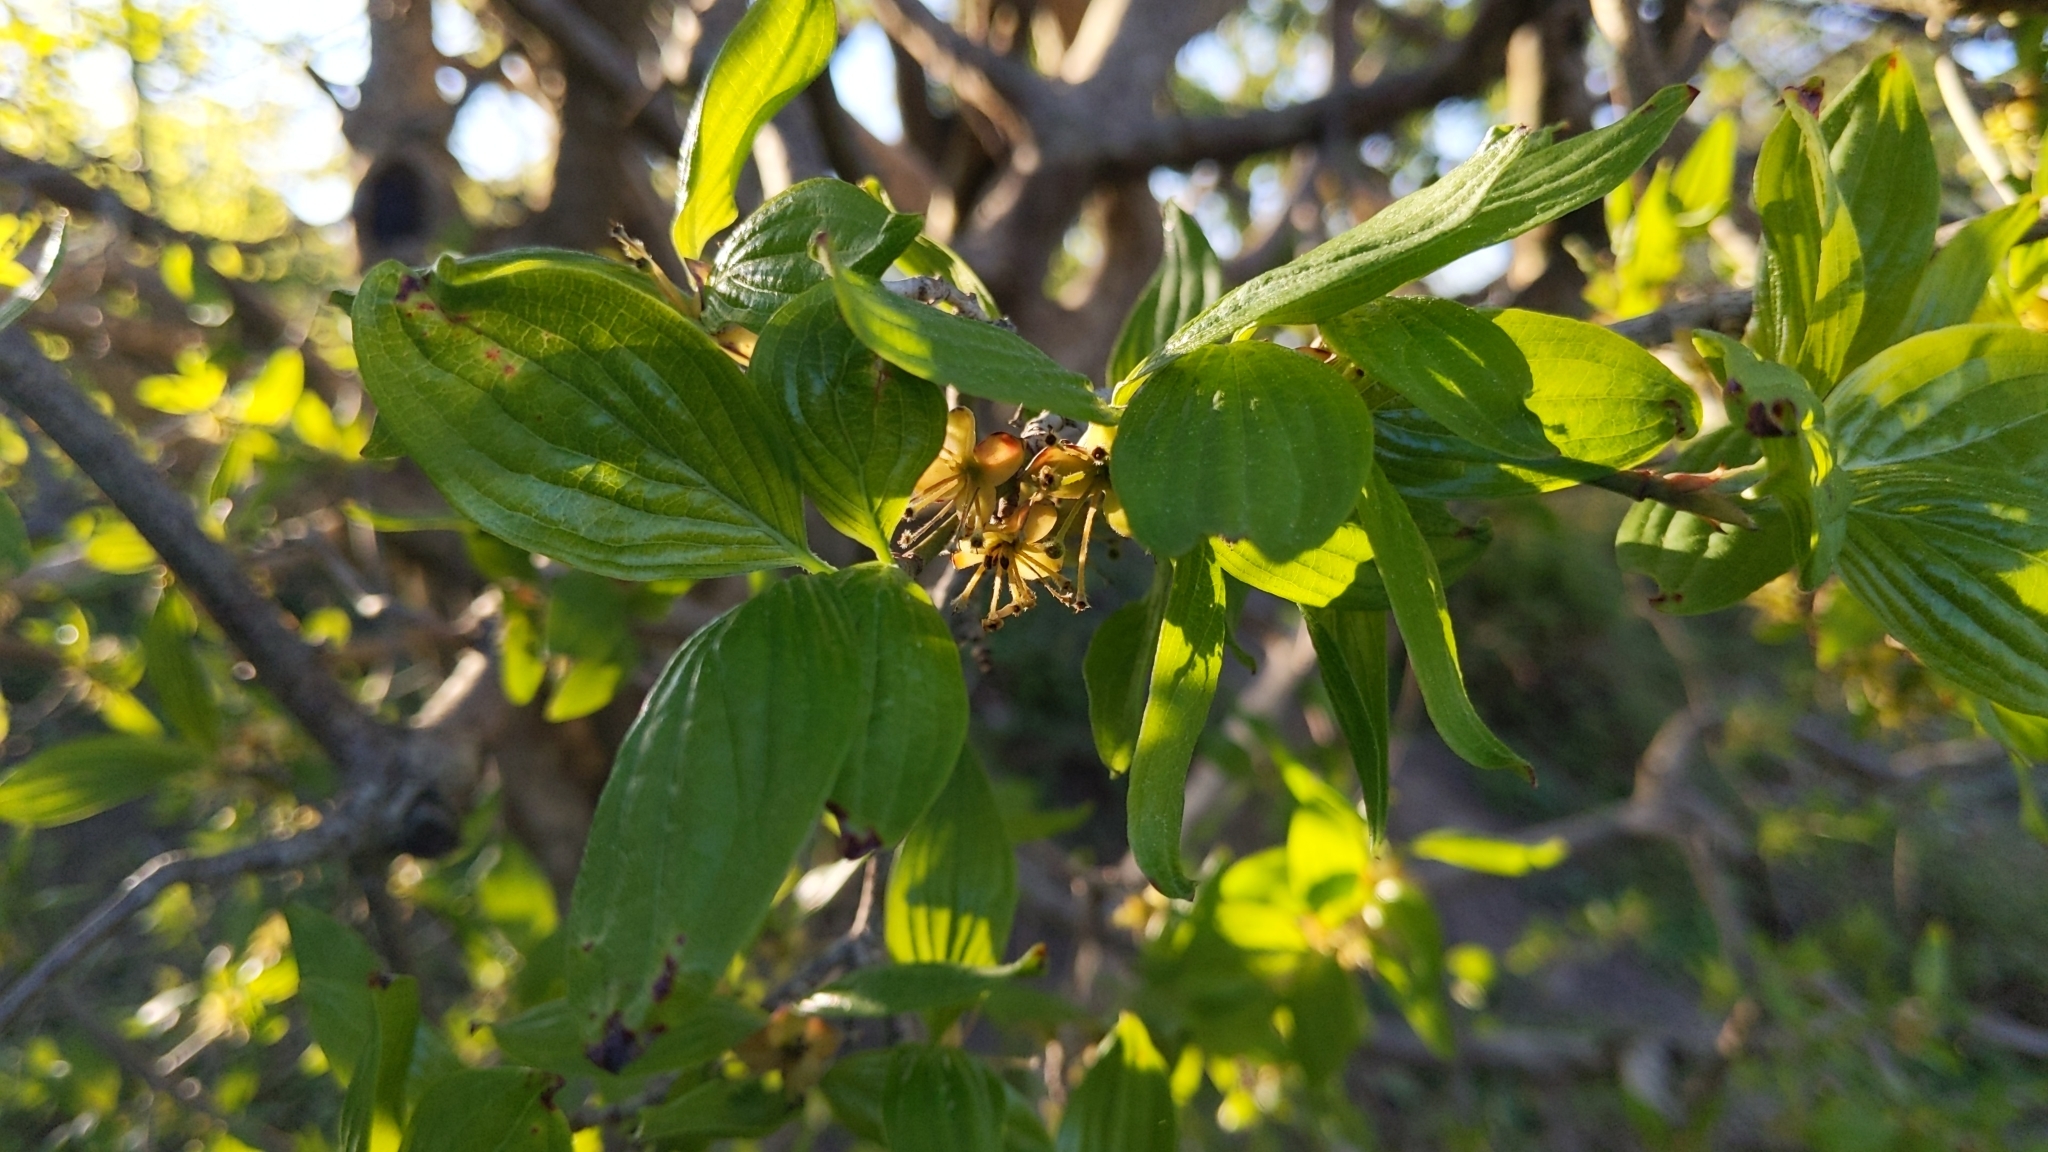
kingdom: Plantae
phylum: Tracheophyta
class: Magnoliopsida
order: Cornales
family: Cornaceae
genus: Cornus
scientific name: Cornus mas
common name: Cornelian-cherry
